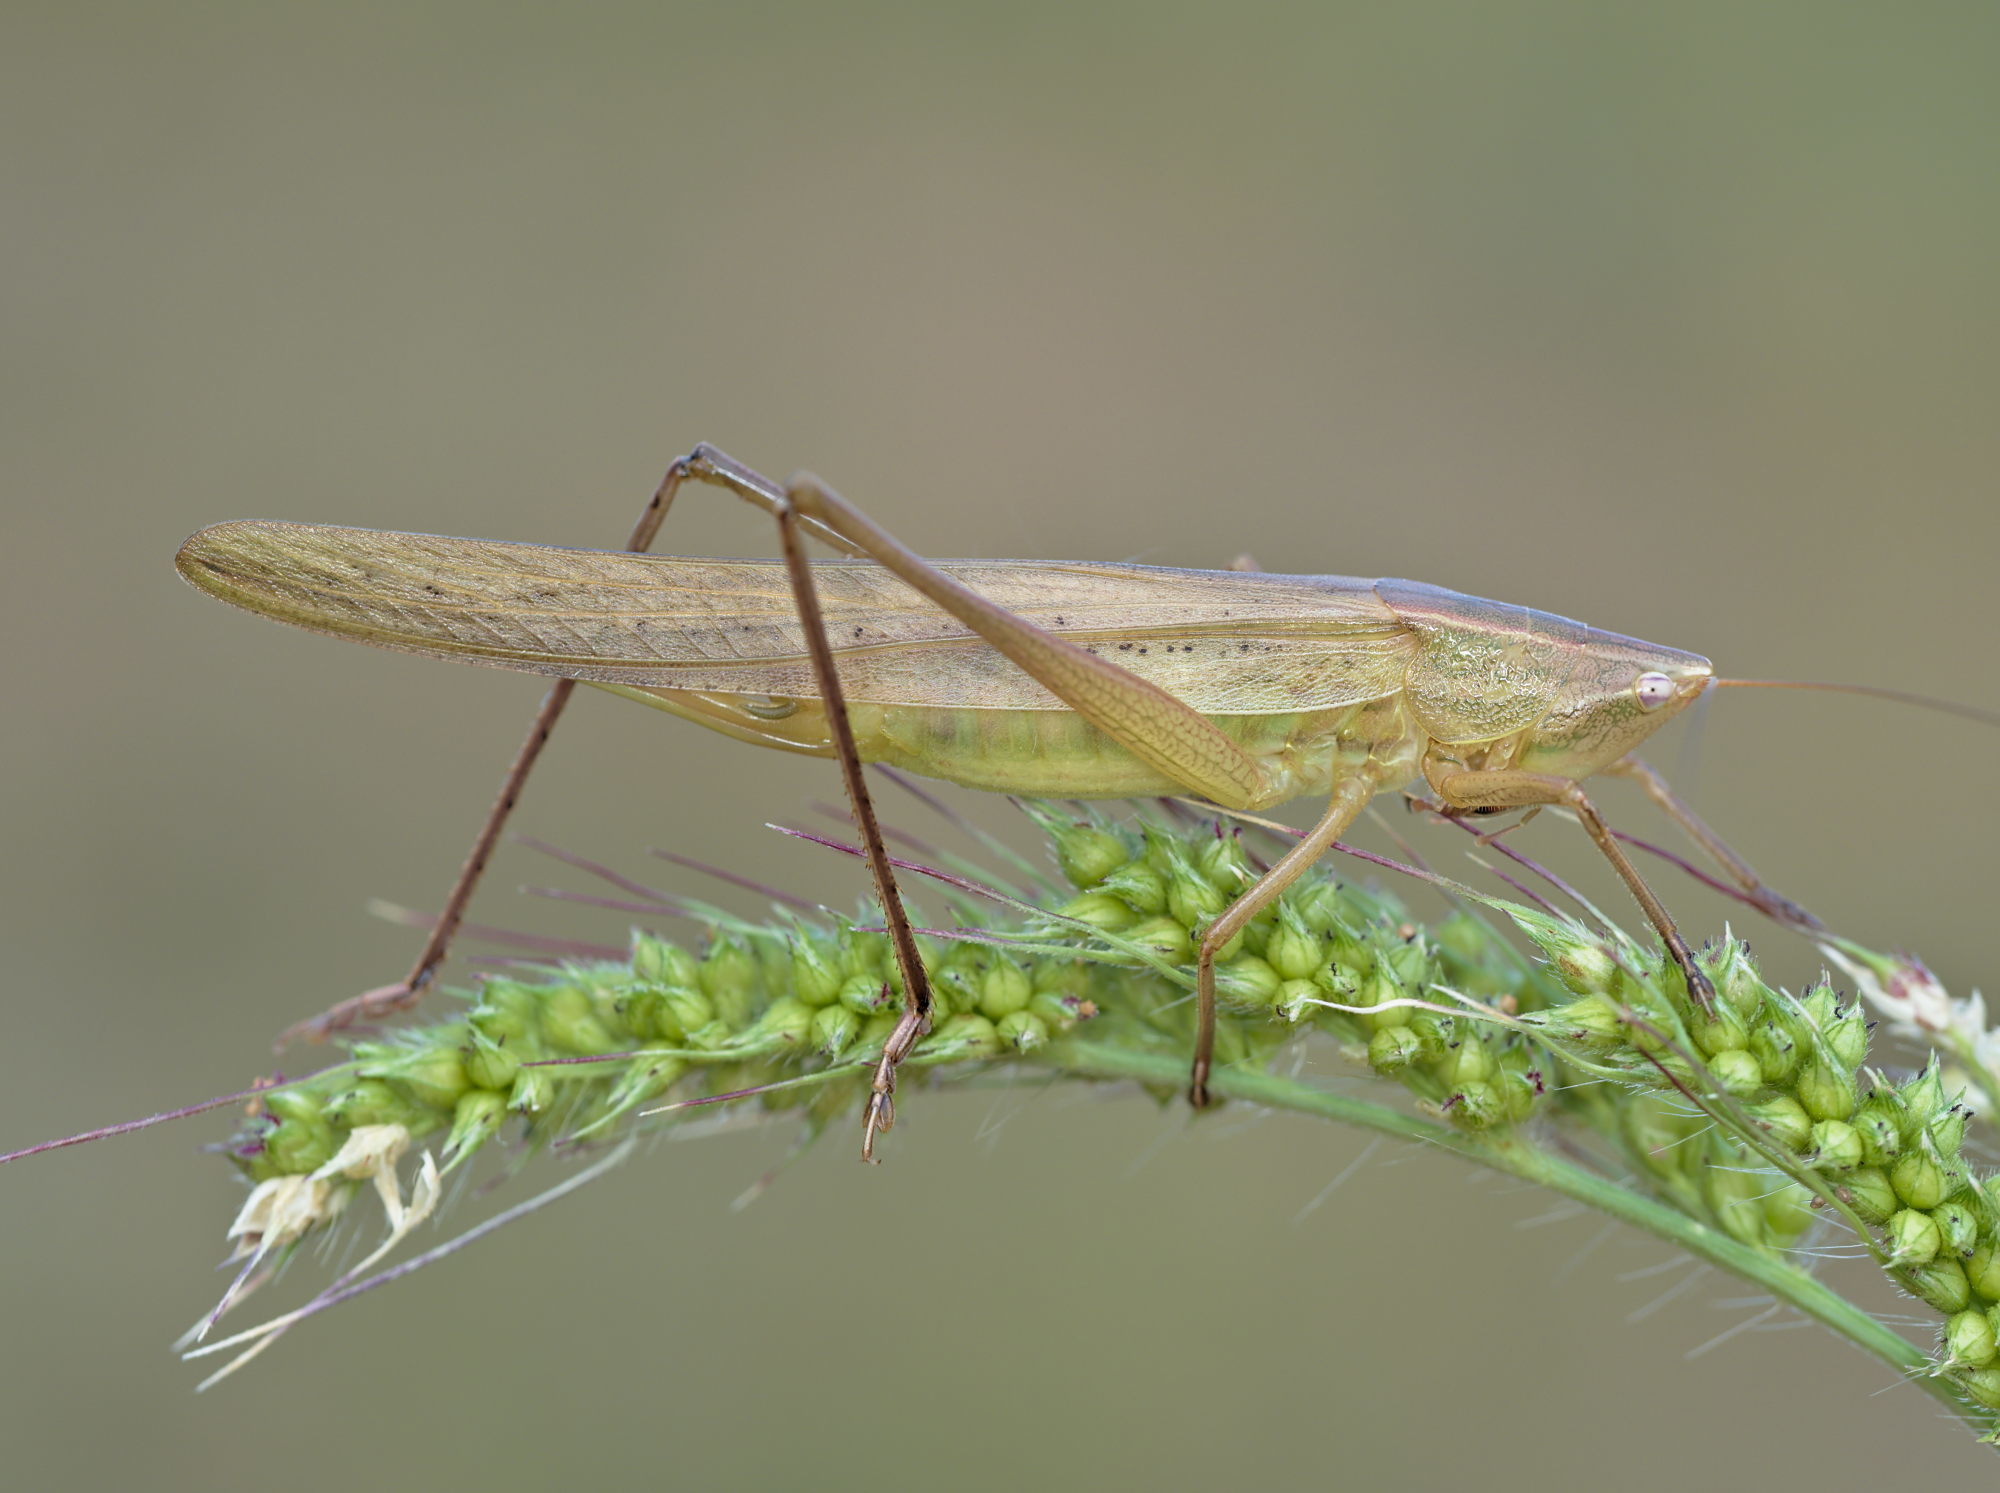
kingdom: Animalia
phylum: Arthropoda
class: Insecta
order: Orthoptera
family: Tettigoniidae
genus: Ruspolia
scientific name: Ruspolia nitidula
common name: Large conehead
